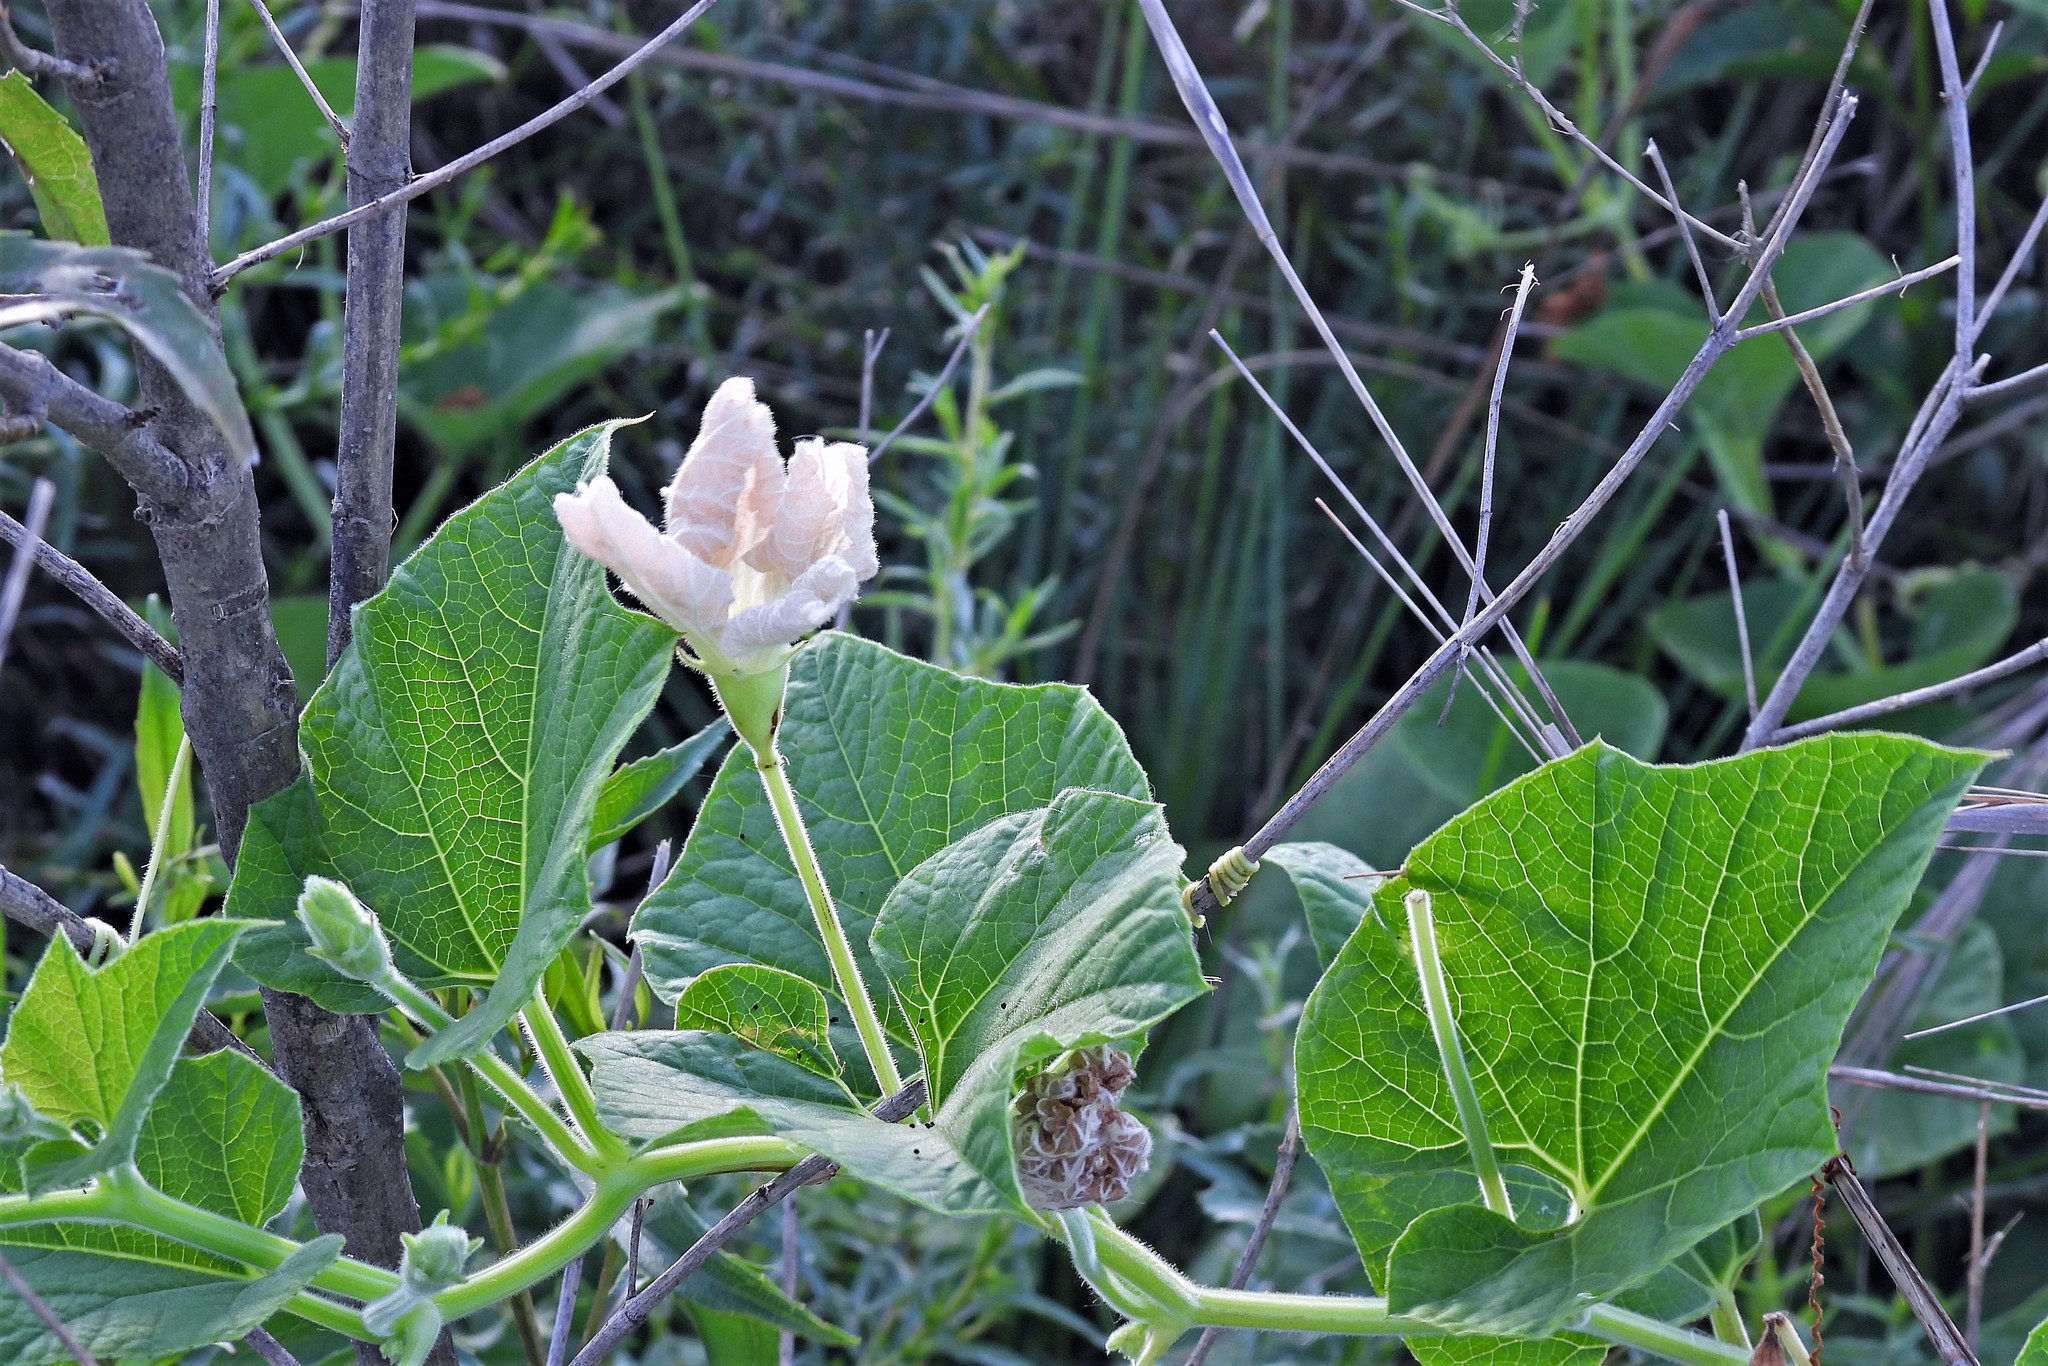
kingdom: Plantae
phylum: Tracheophyta
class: Magnoliopsida
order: Cucurbitales
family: Cucurbitaceae
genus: Lagenaria
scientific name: Lagenaria siceraria
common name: Bottle gourd
